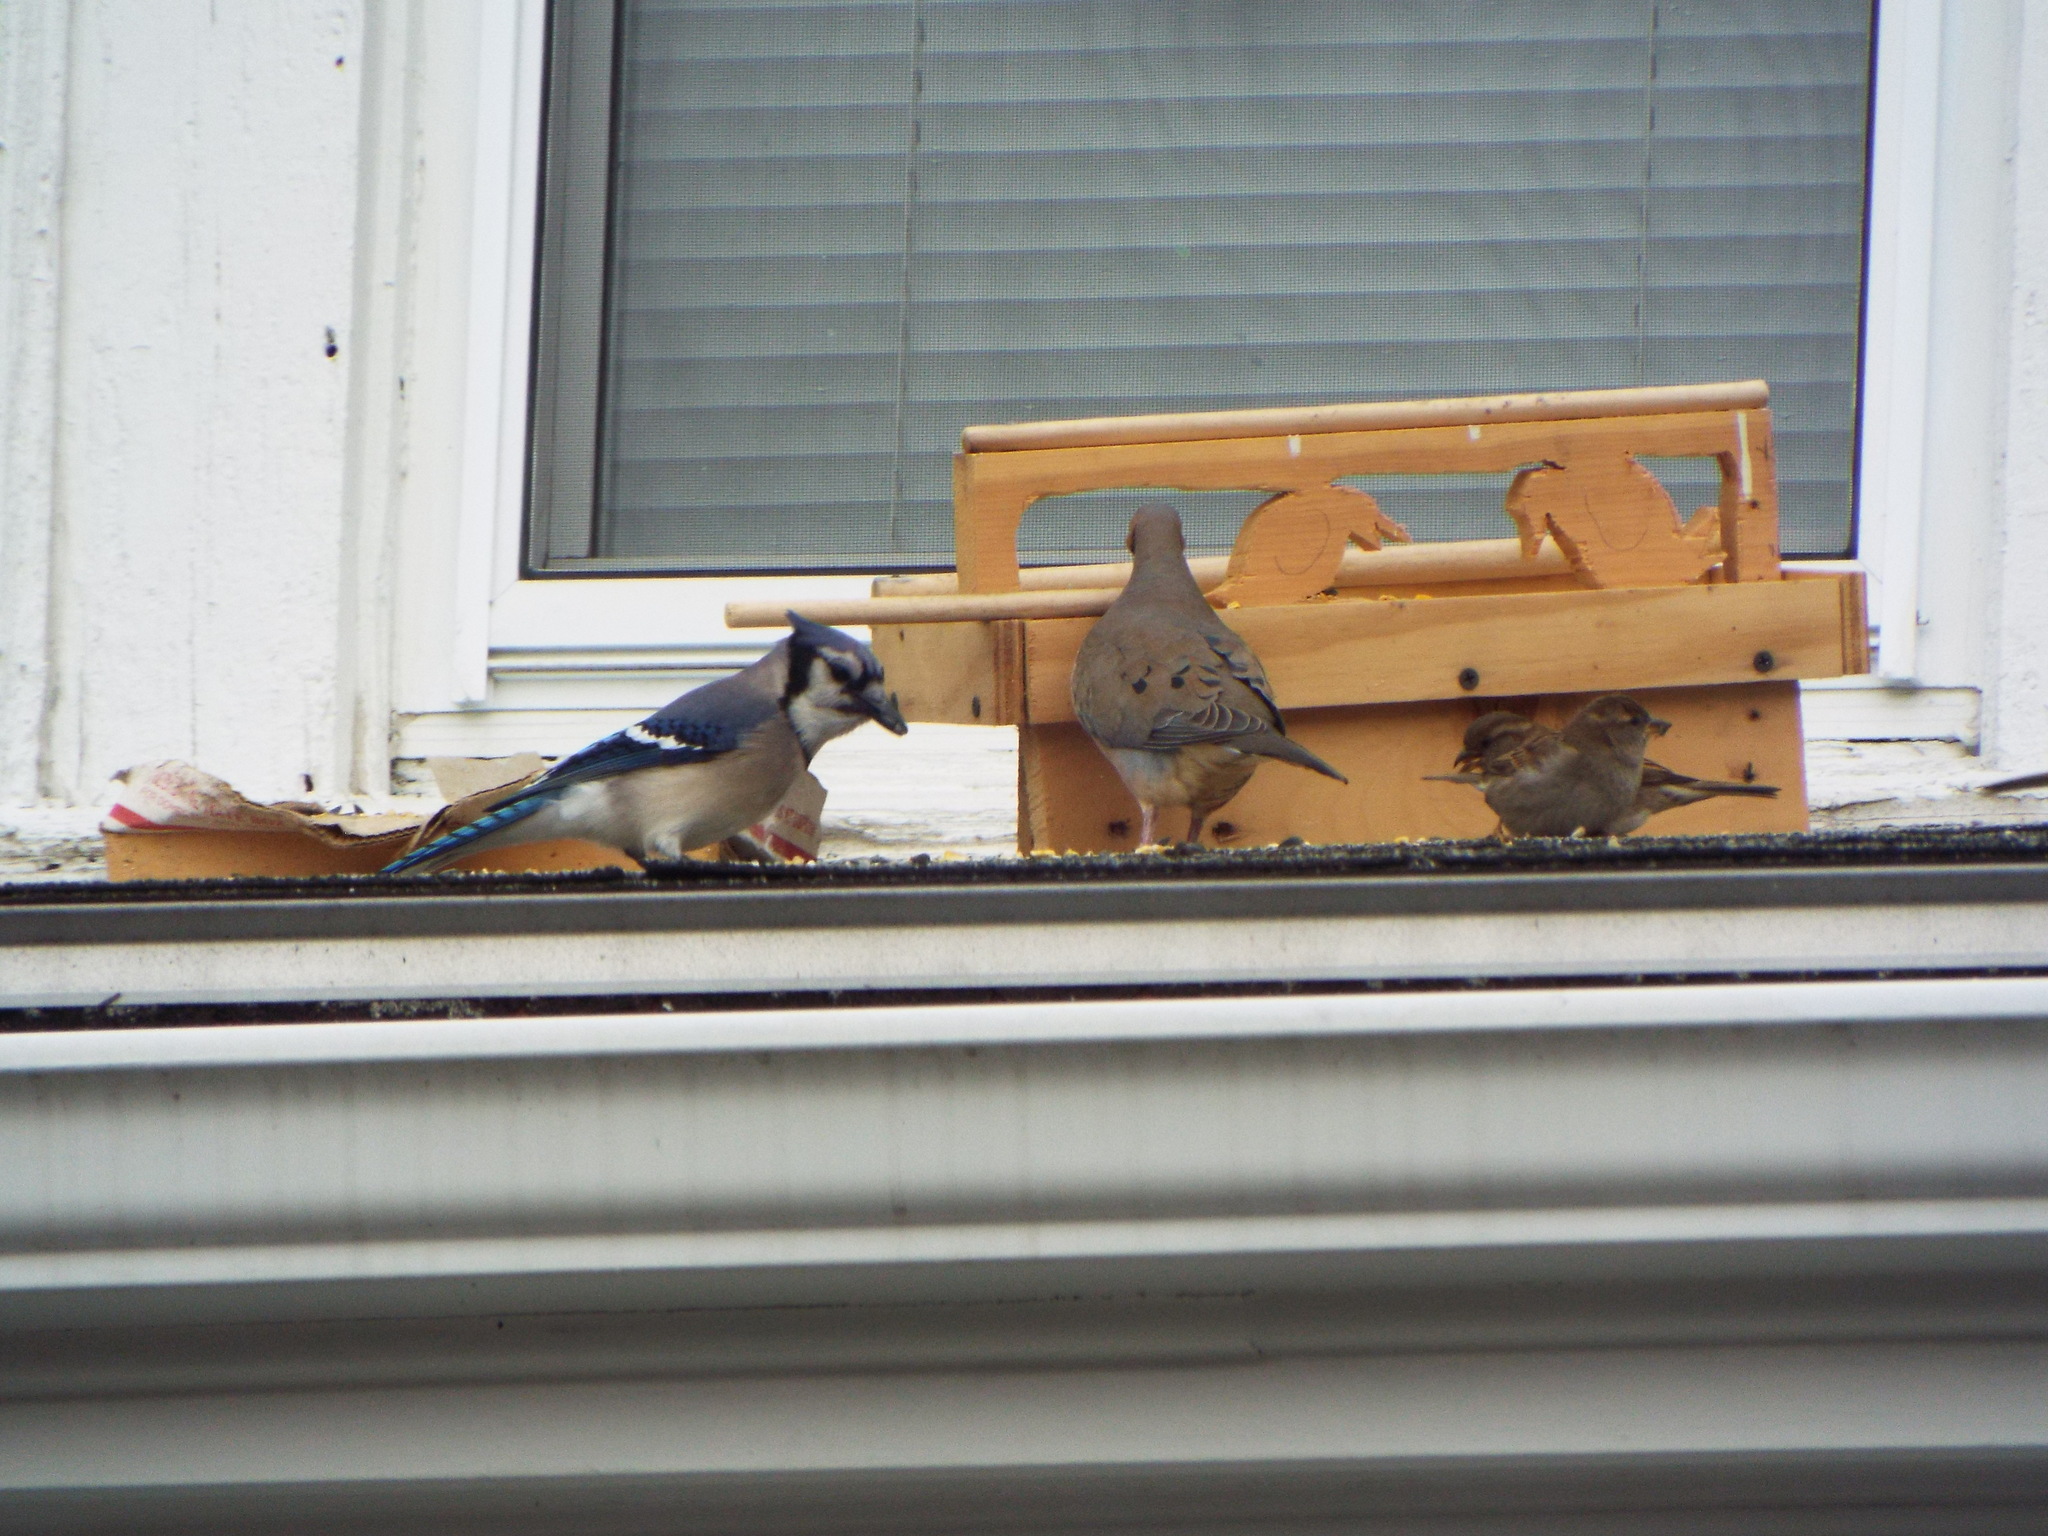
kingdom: Animalia
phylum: Chordata
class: Aves
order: Passeriformes
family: Corvidae
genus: Cyanocitta
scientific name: Cyanocitta cristata
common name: Blue jay
